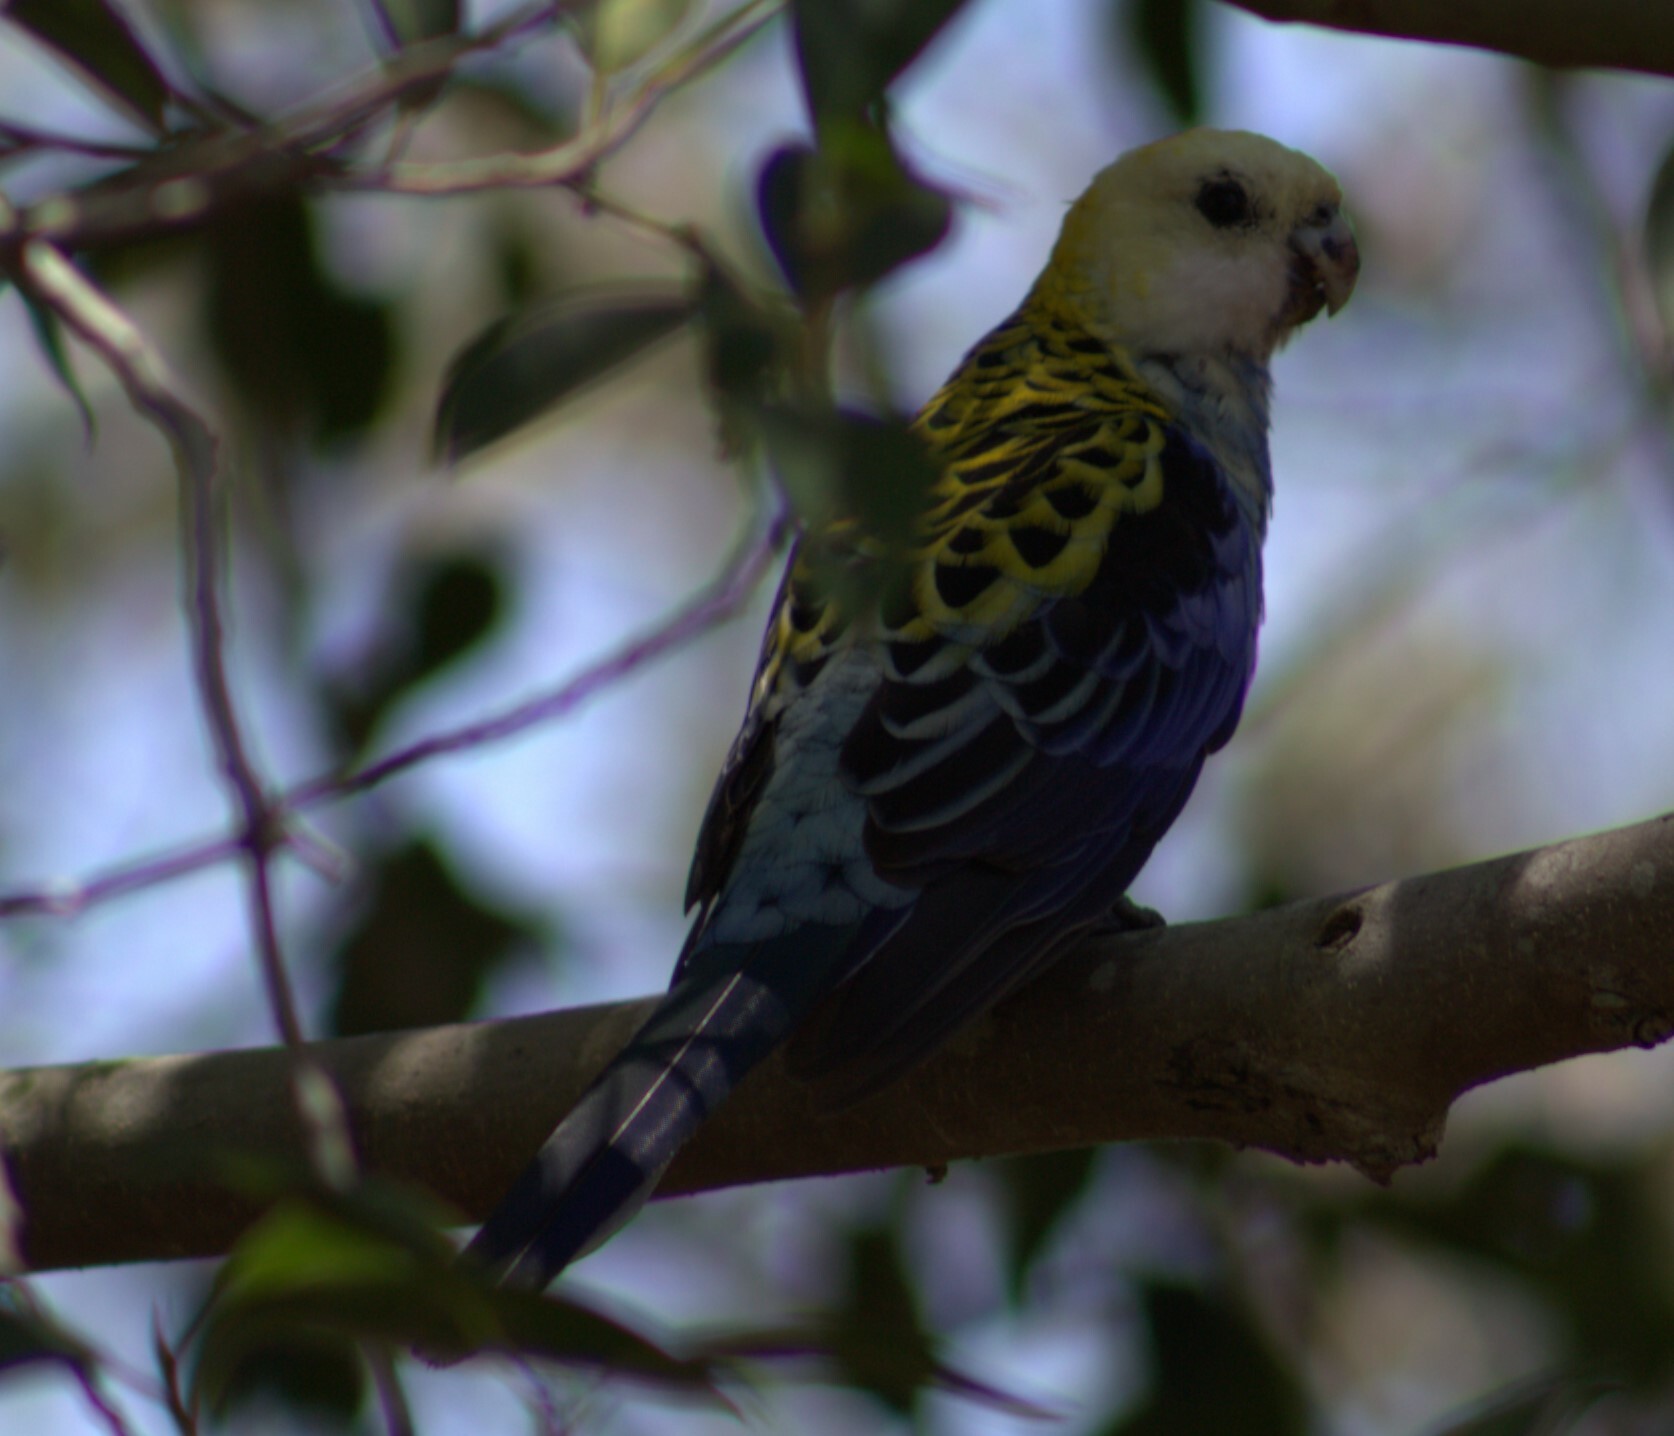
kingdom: Animalia
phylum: Chordata
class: Aves
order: Psittaciformes
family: Psittacidae
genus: Platycercus
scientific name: Platycercus adscitus
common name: Pale-headed rosella
